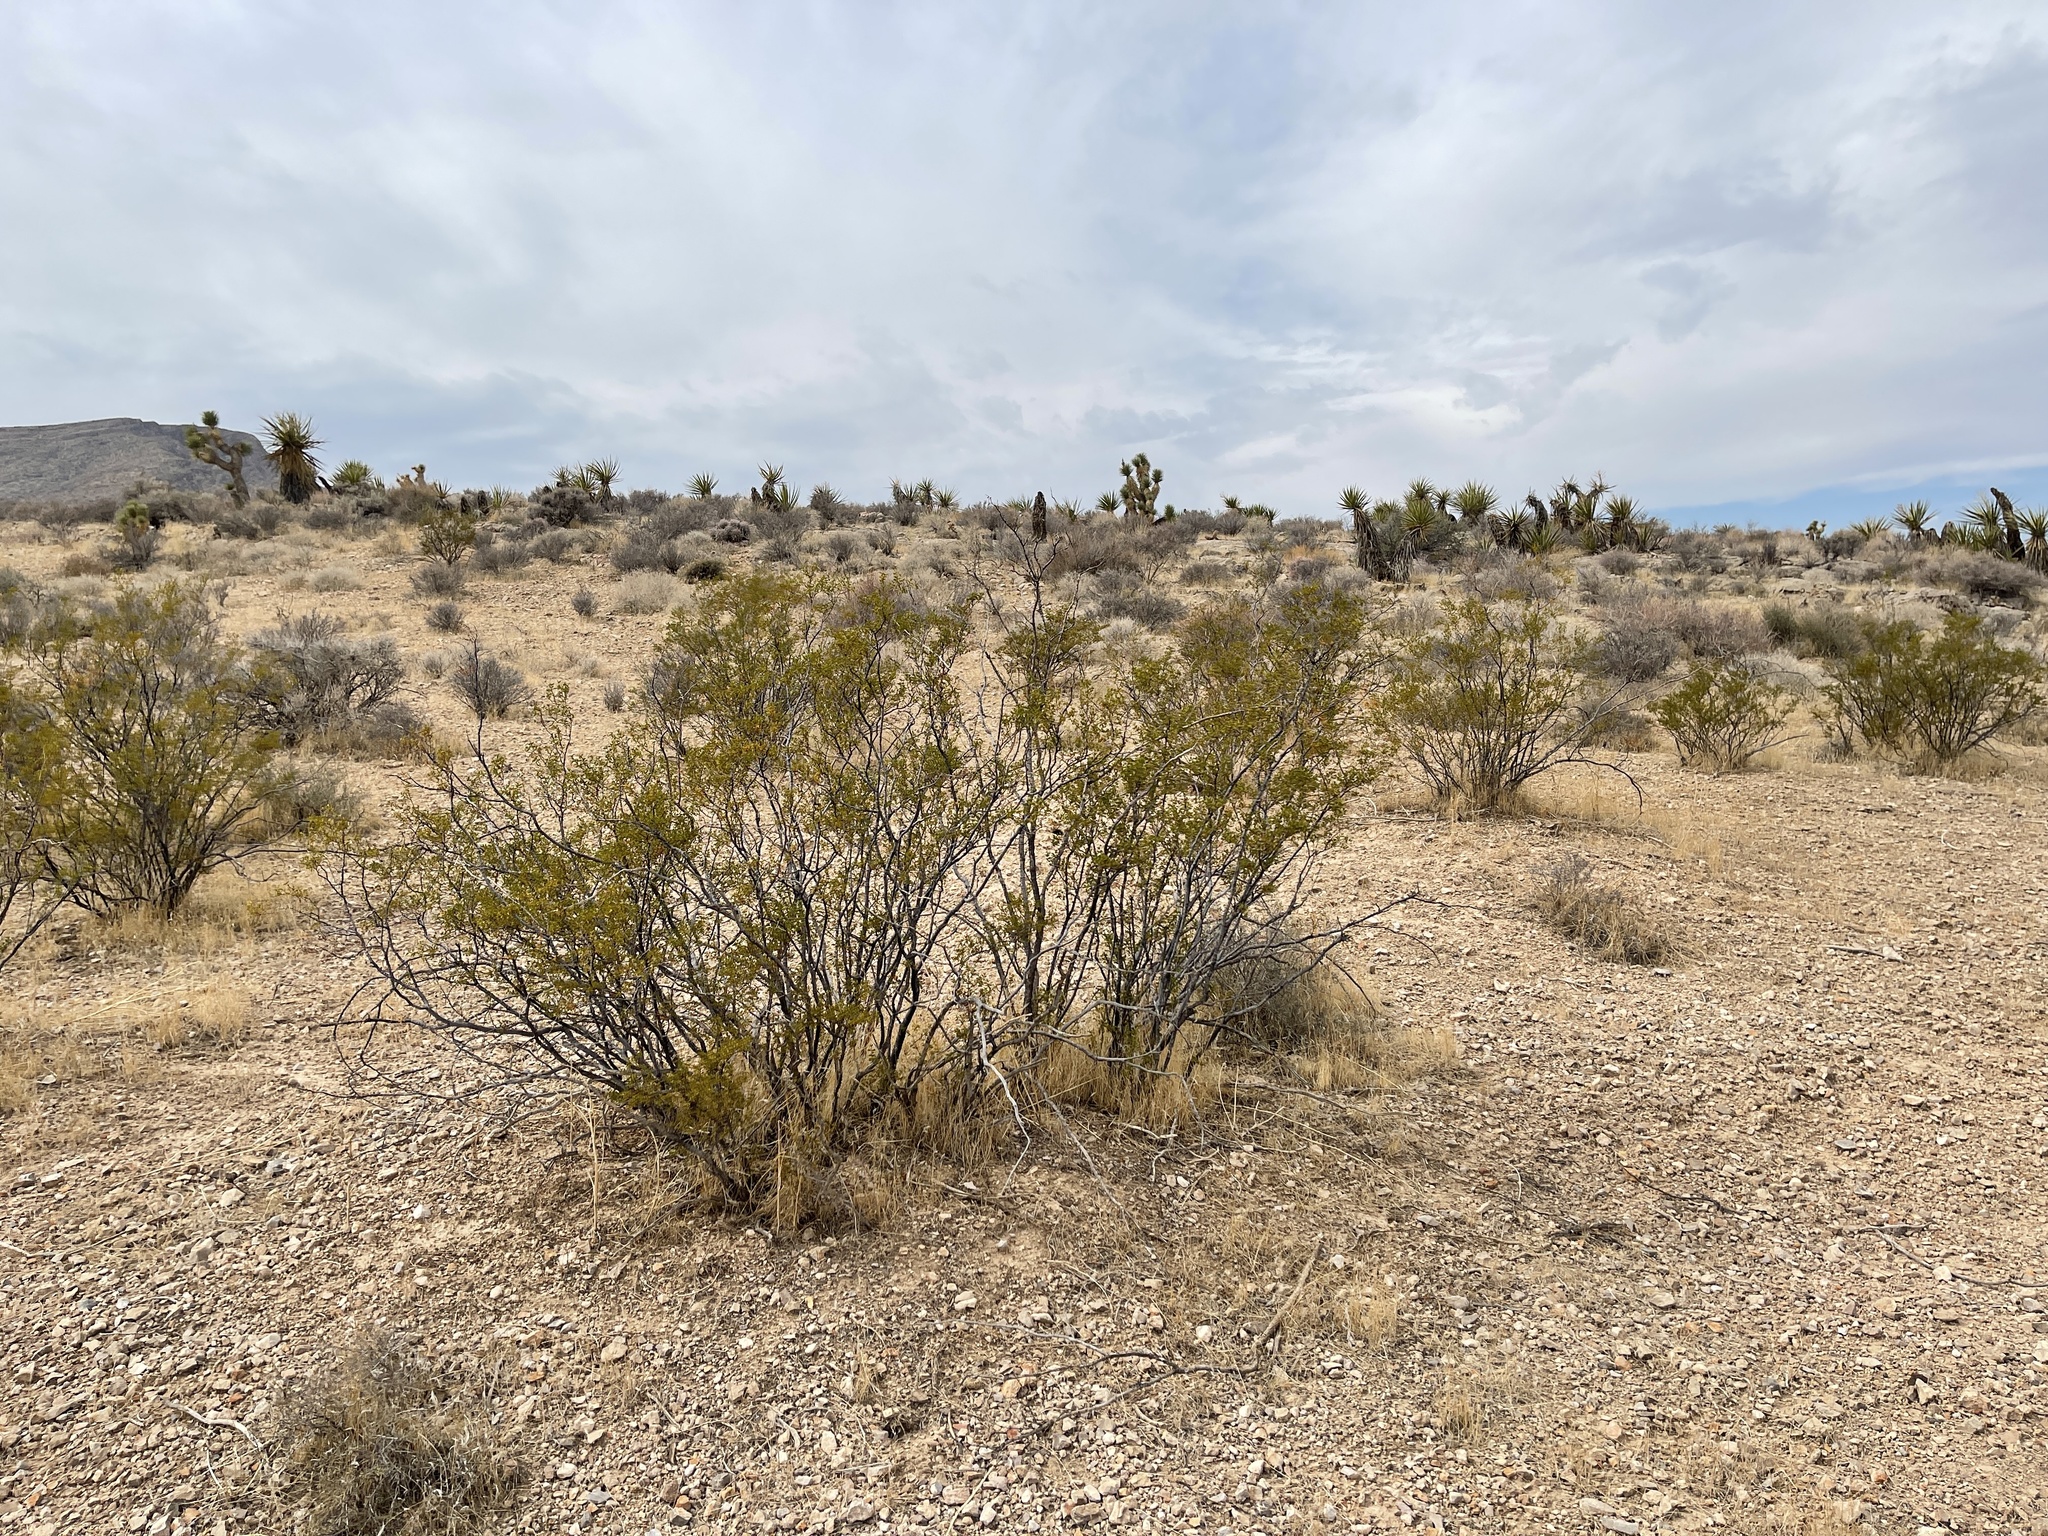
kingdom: Plantae
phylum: Tracheophyta
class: Magnoliopsida
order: Zygophyllales
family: Zygophyllaceae
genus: Larrea
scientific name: Larrea tridentata
